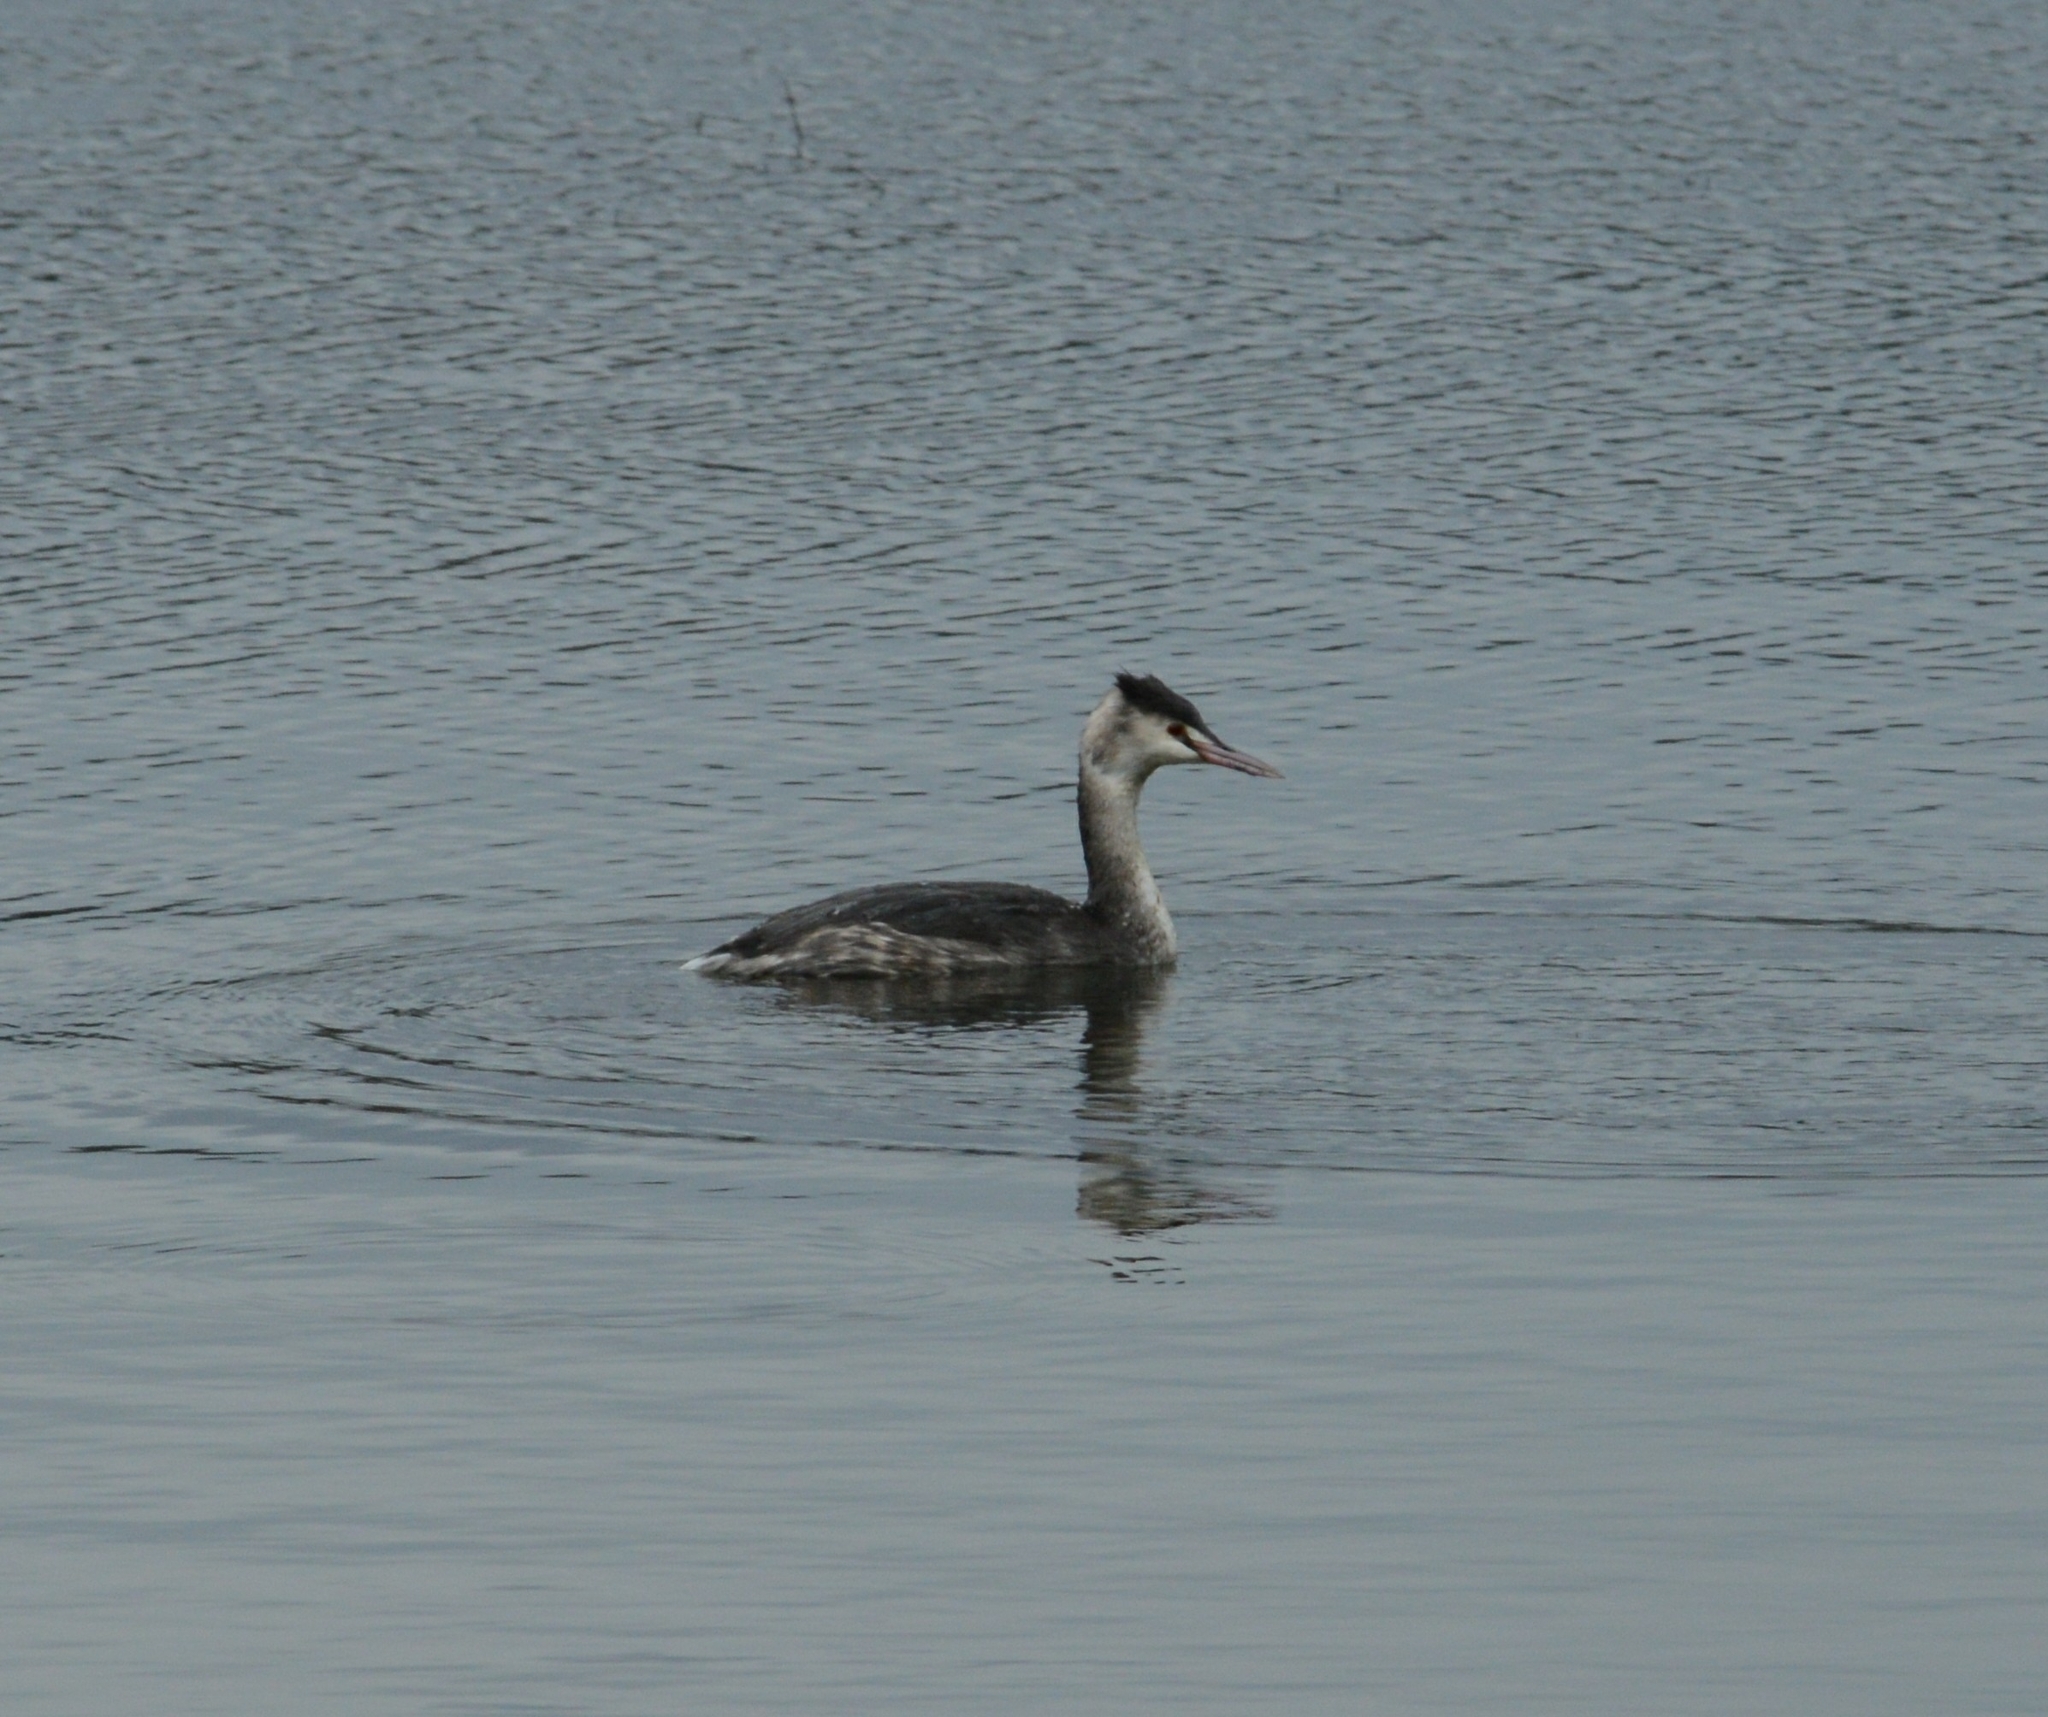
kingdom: Animalia
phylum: Chordata
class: Aves
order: Podicipediformes
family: Podicipedidae
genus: Podiceps
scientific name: Podiceps cristatus
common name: Great crested grebe
